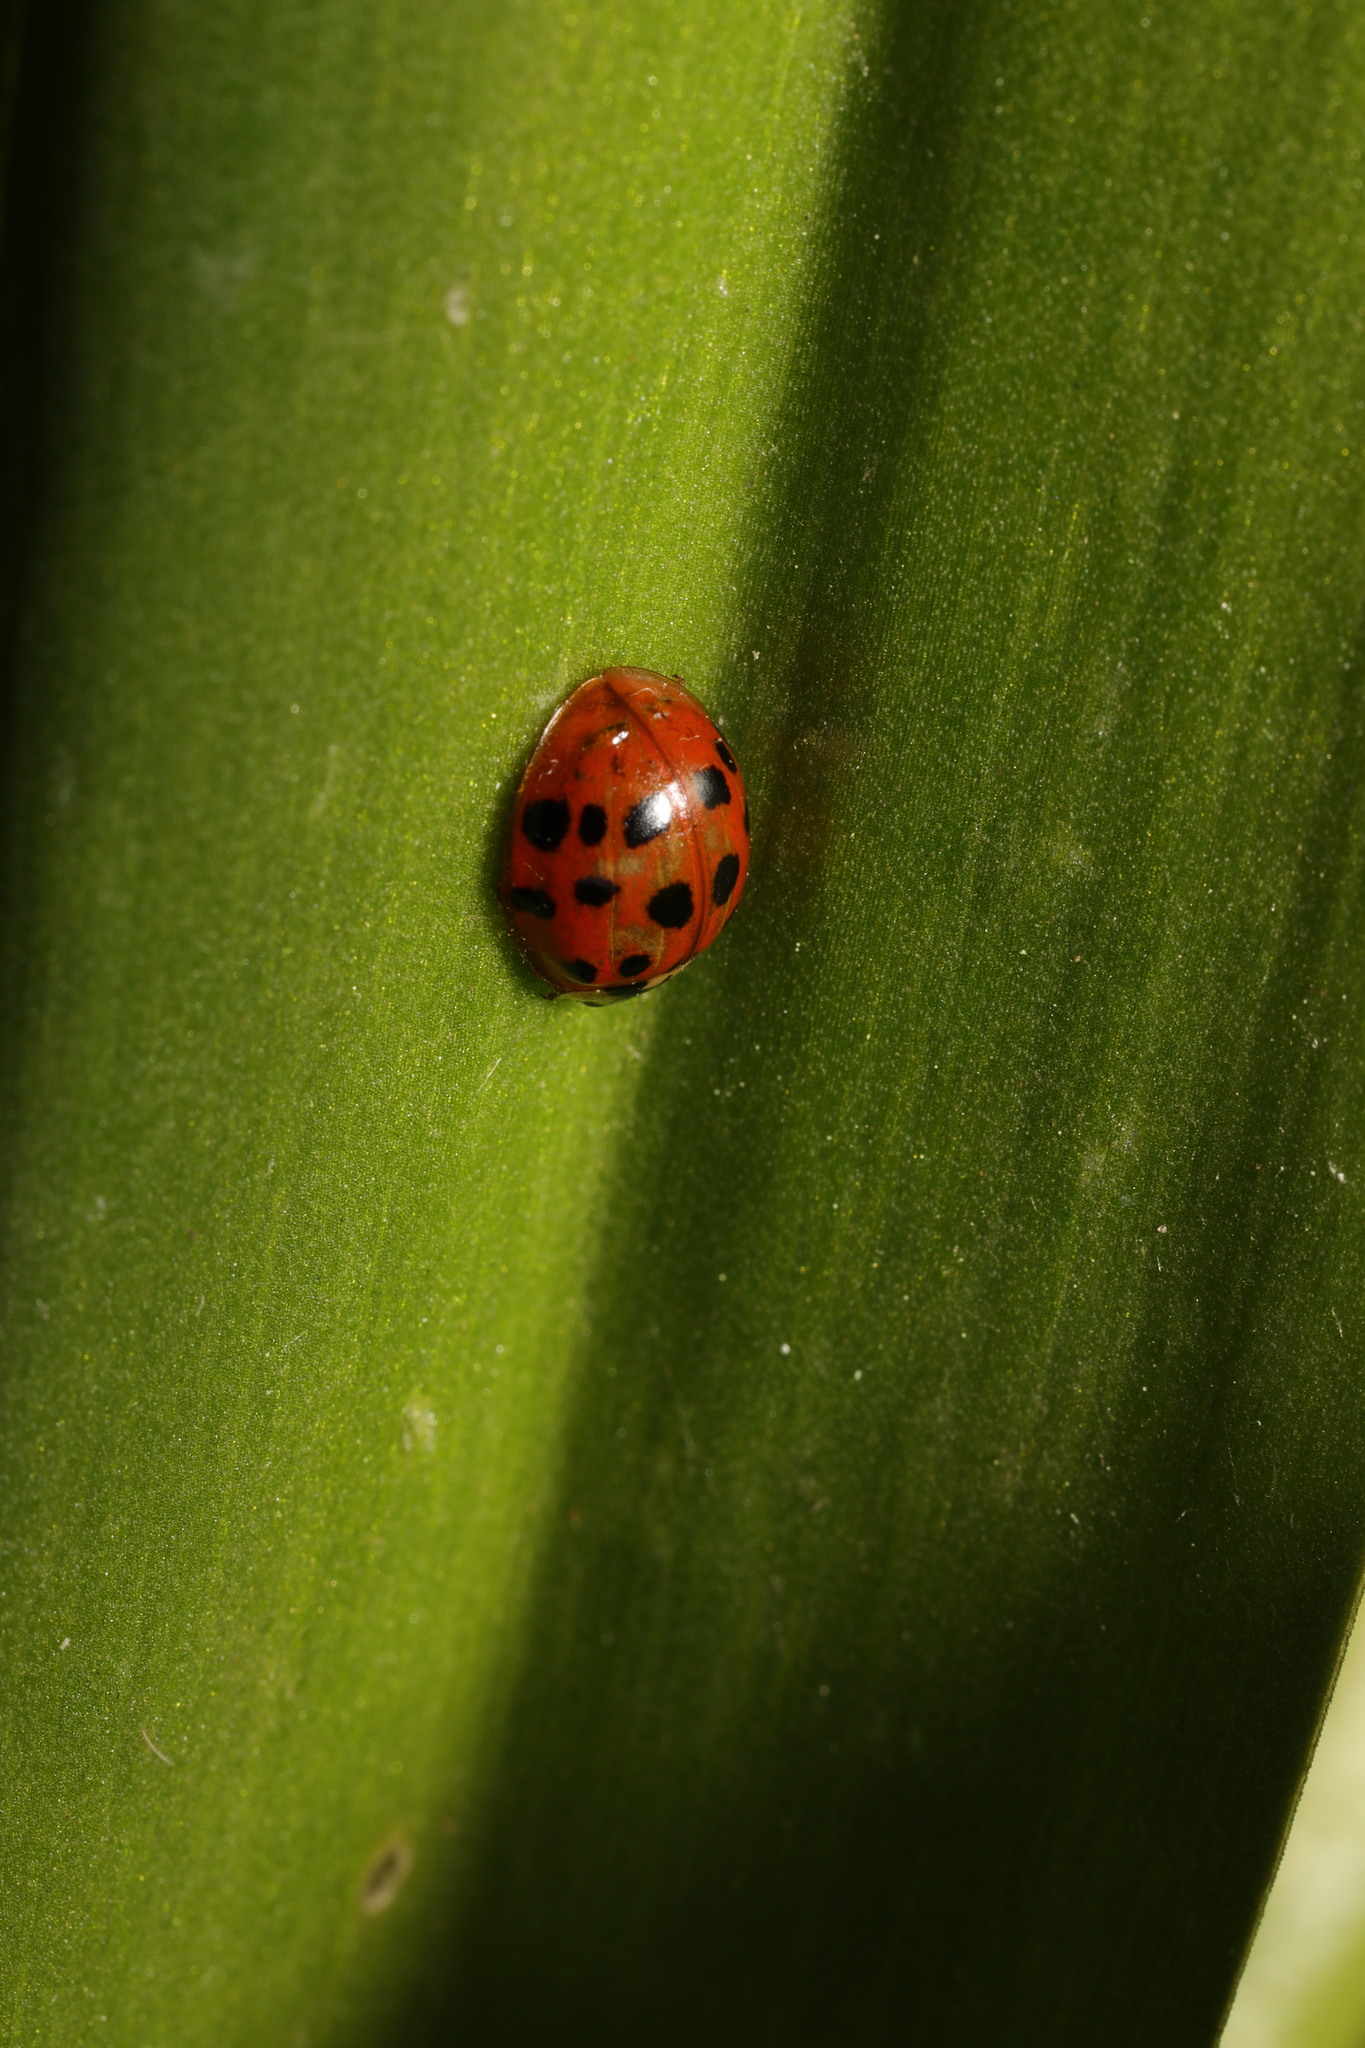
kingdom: Animalia
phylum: Arthropoda
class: Insecta
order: Coleoptera
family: Coccinellidae
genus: Harmonia
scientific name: Harmonia axyridis
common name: Harlequin ladybird
